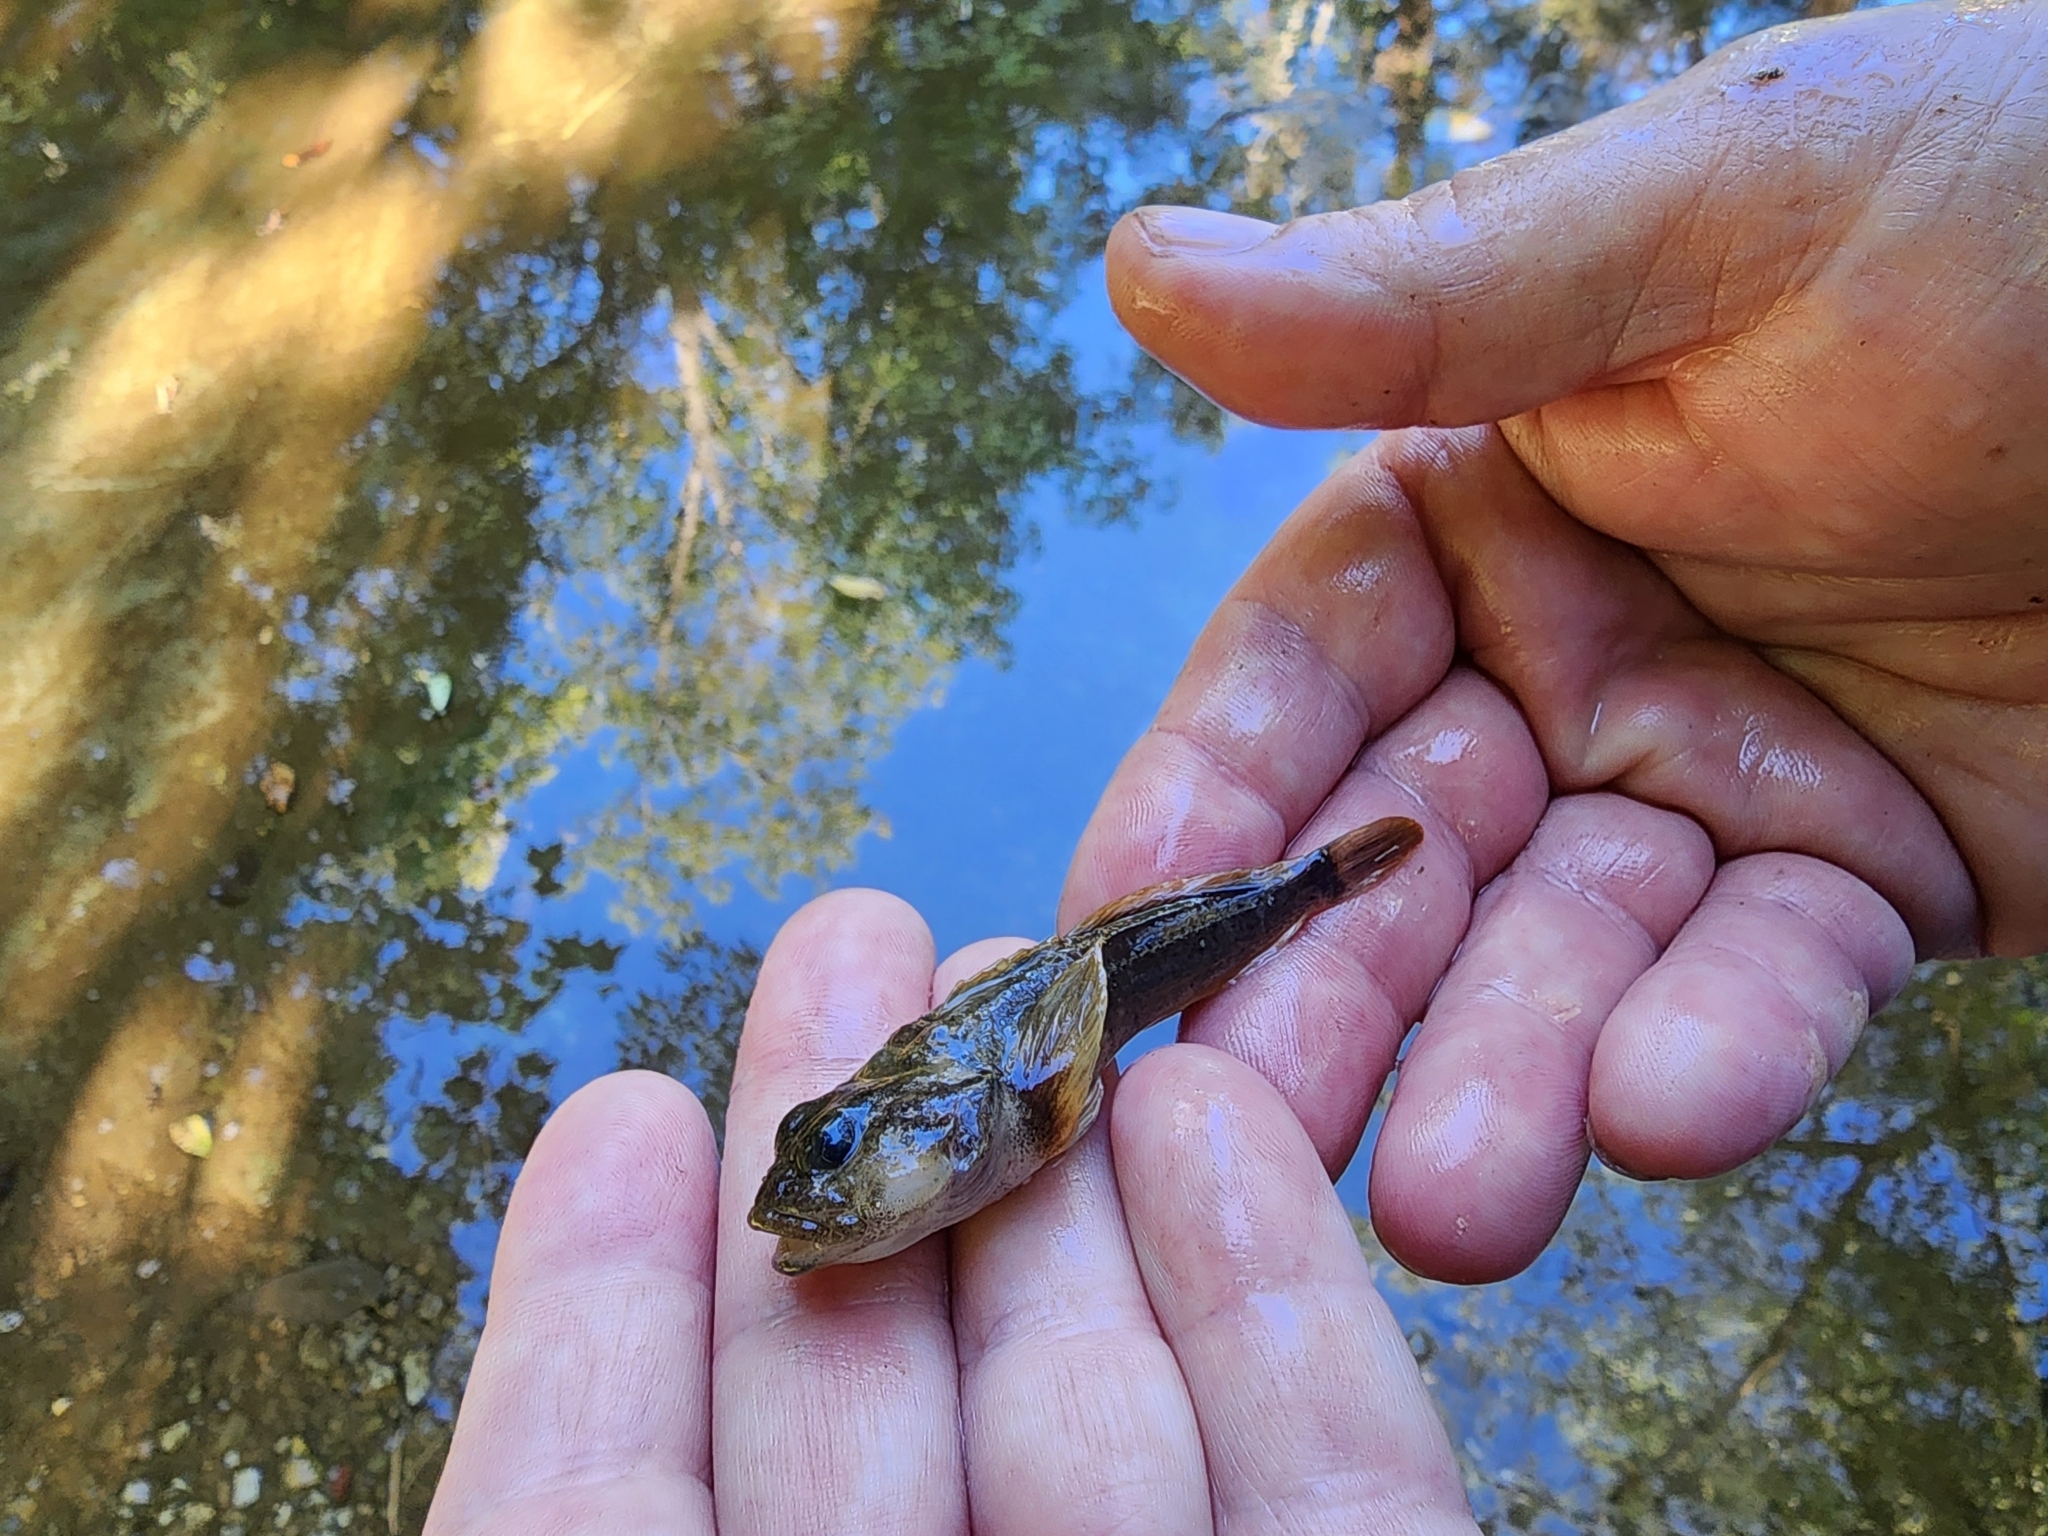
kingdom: Animalia
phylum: Chordata
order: Scorpaeniformes
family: Cottidae
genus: Cottus
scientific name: Cottus bairdii
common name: Mottled sculpin
